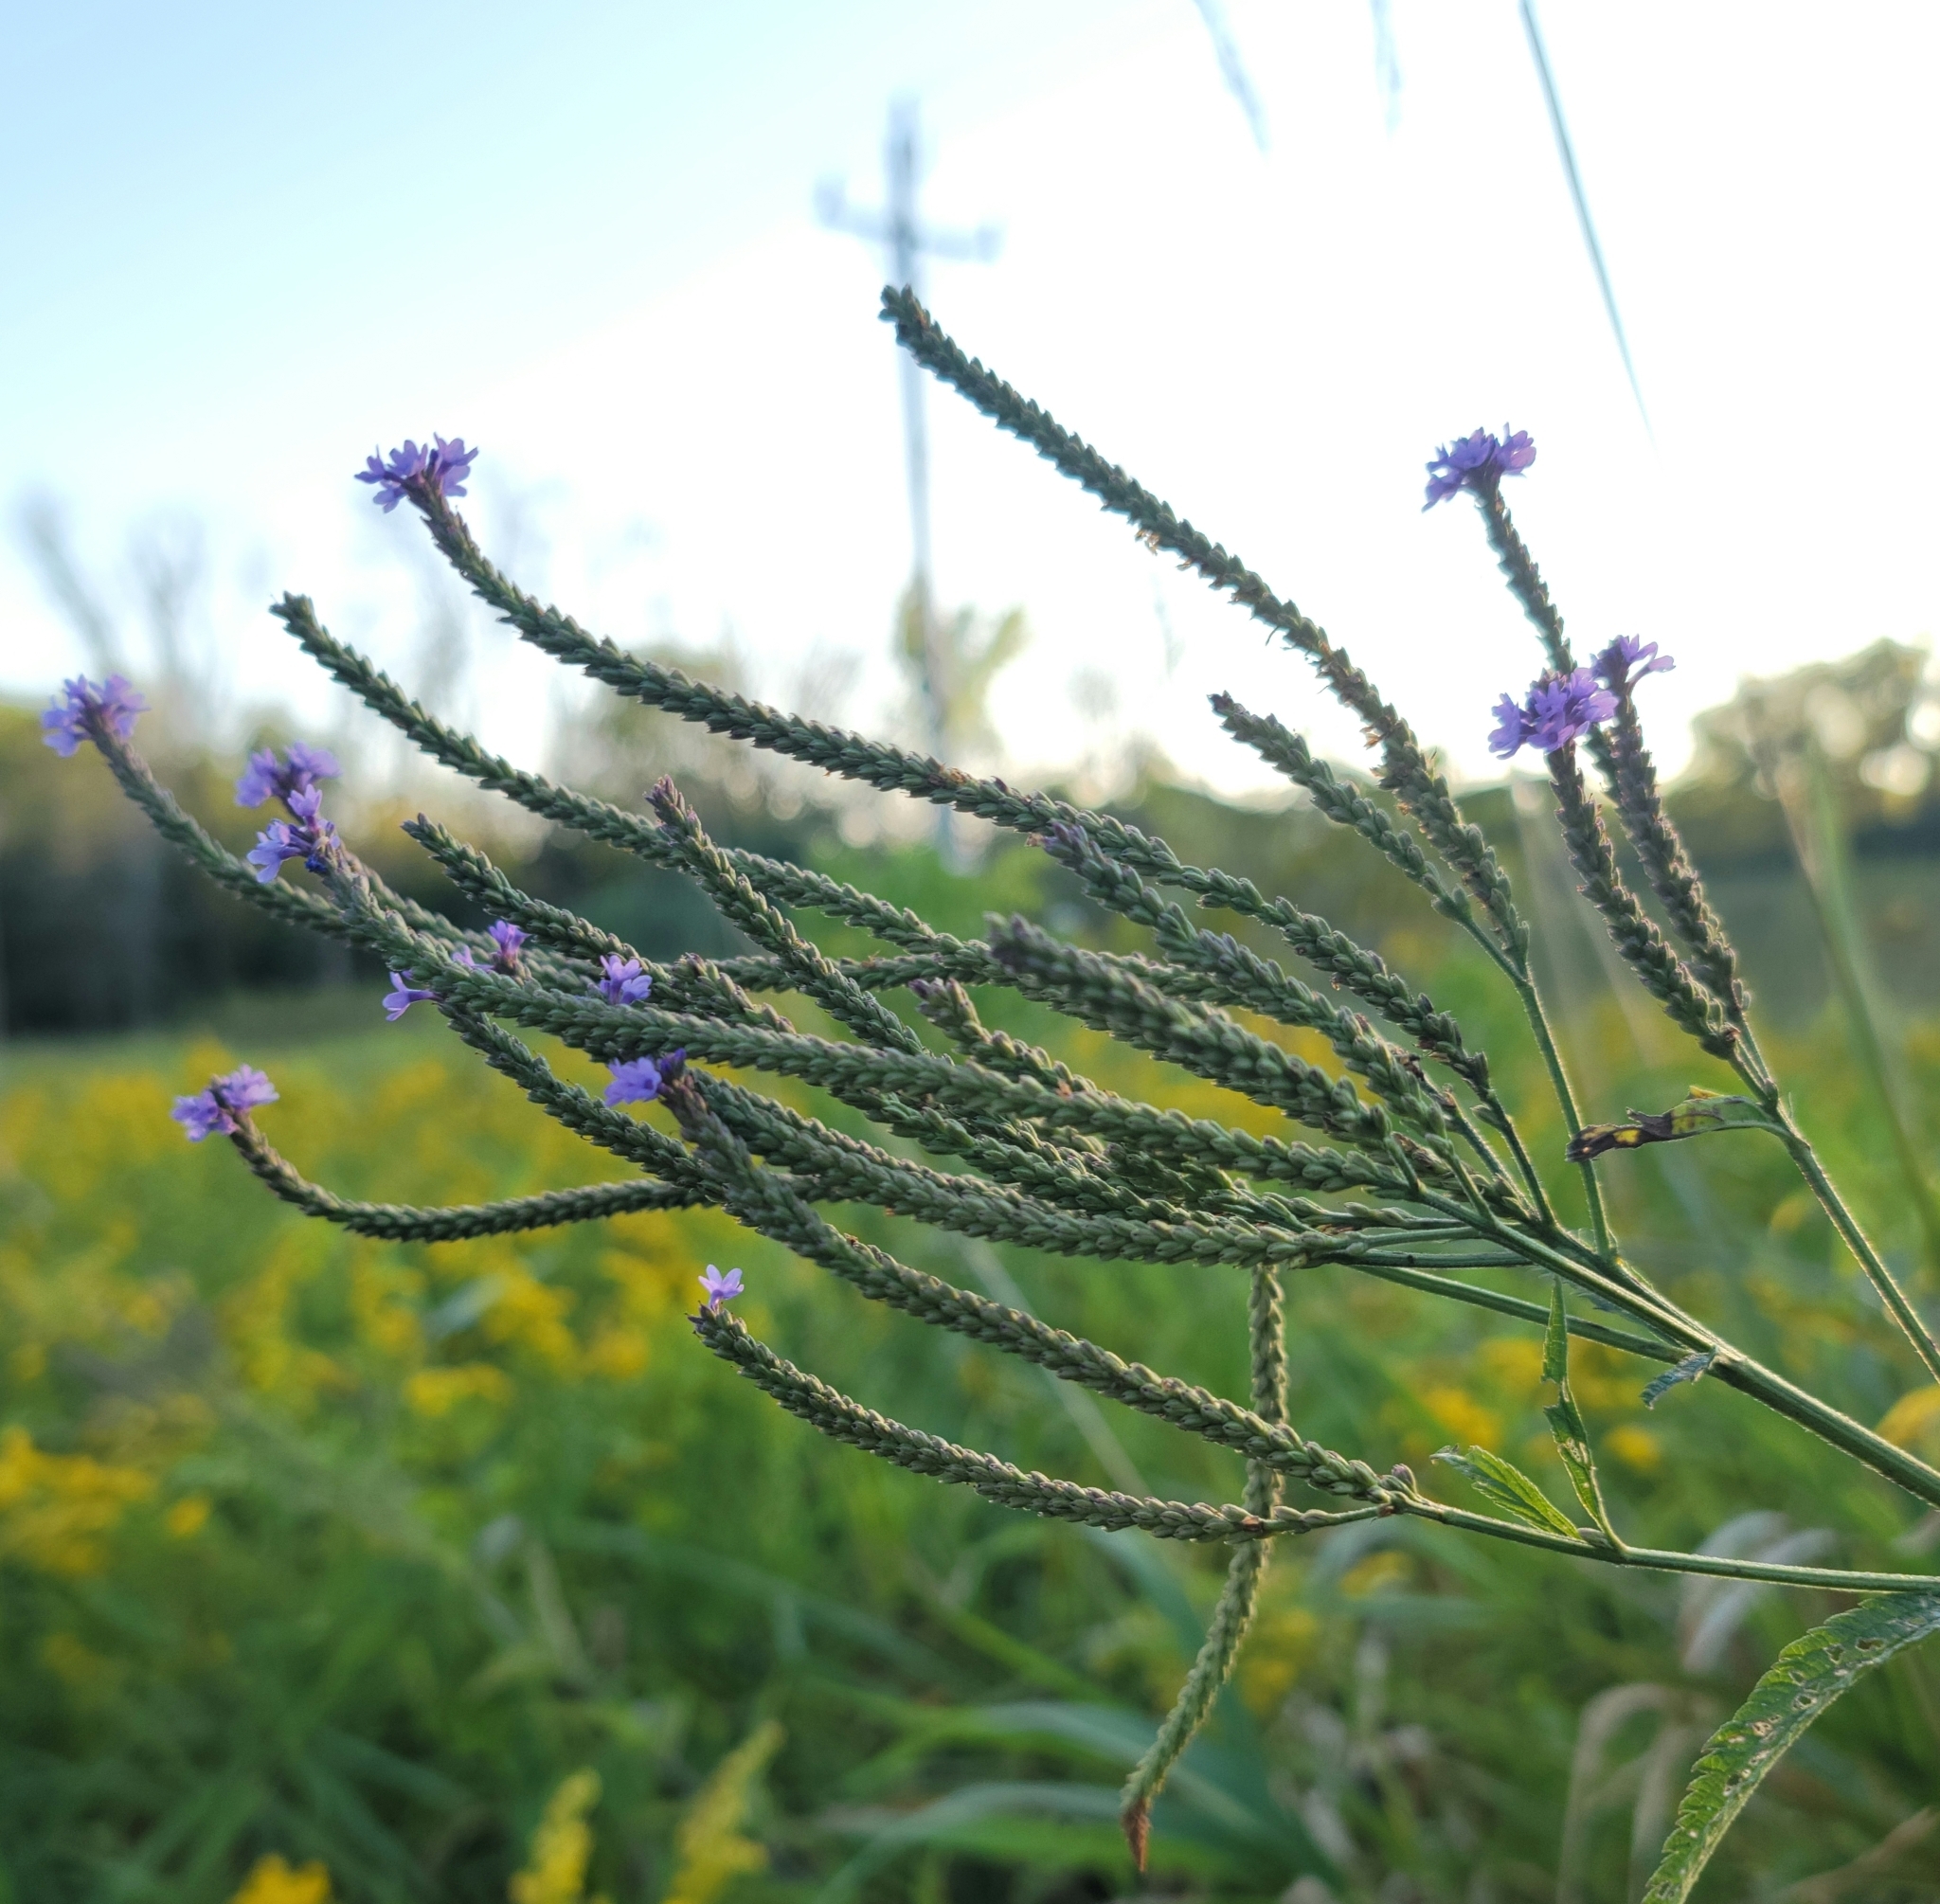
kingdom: Plantae
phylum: Tracheophyta
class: Magnoliopsida
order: Lamiales
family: Verbenaceae
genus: Verbena
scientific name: Verbena hastata
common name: American blue vervain
